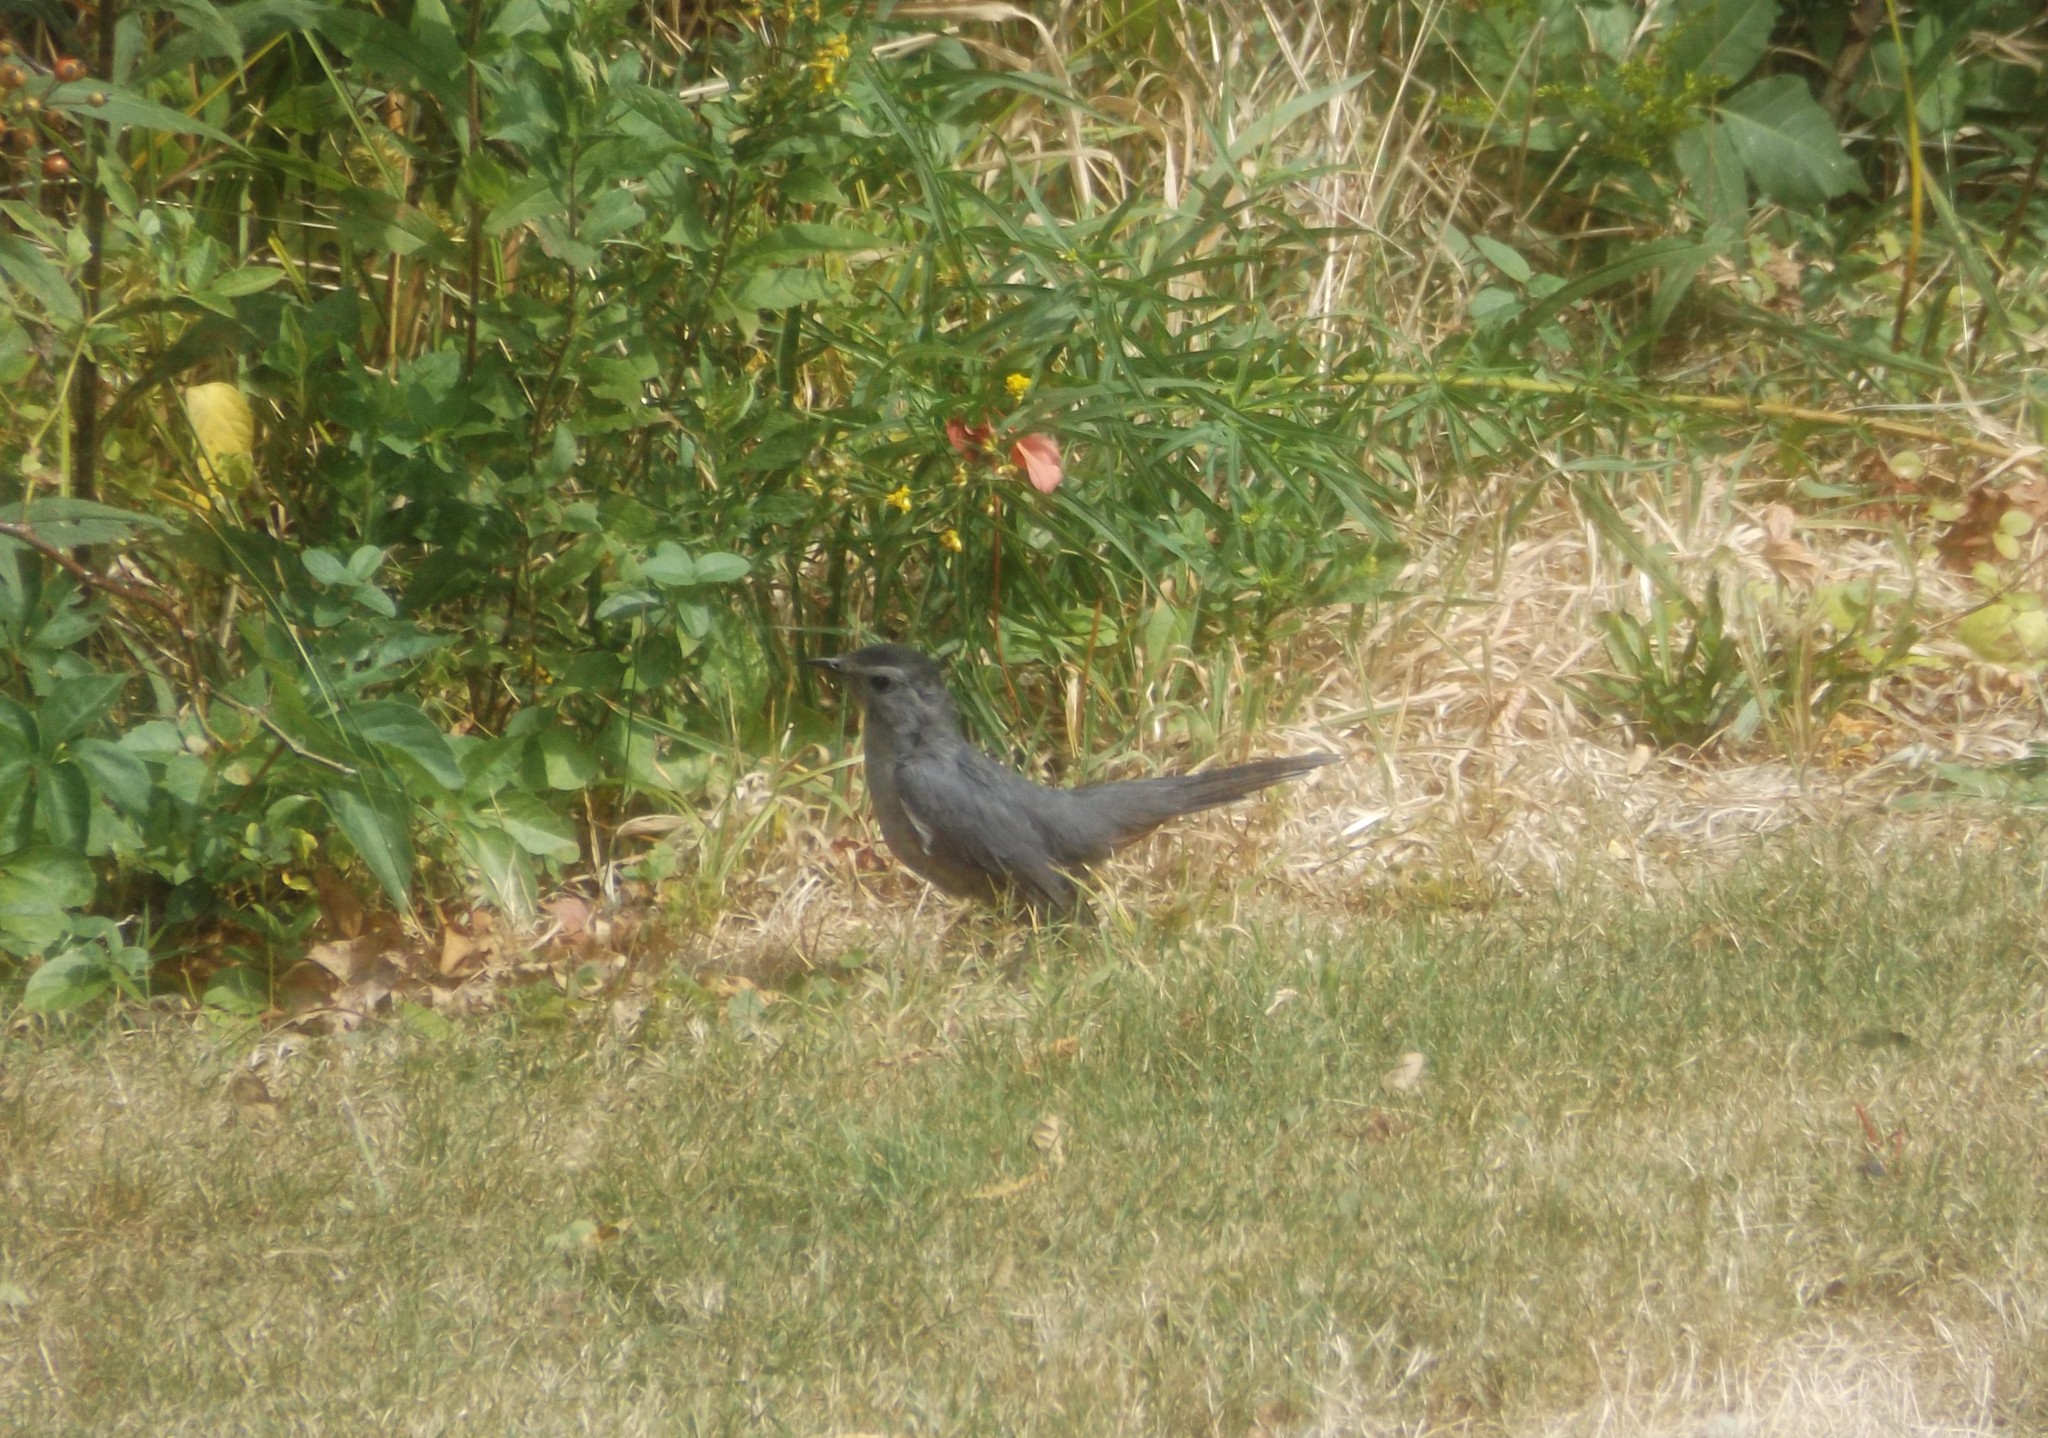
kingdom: Animalia
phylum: Chordata
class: Aves
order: Passeriformes
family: Mimidae
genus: Dumetella
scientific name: Dumetella carolinensis
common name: Gray catbird
